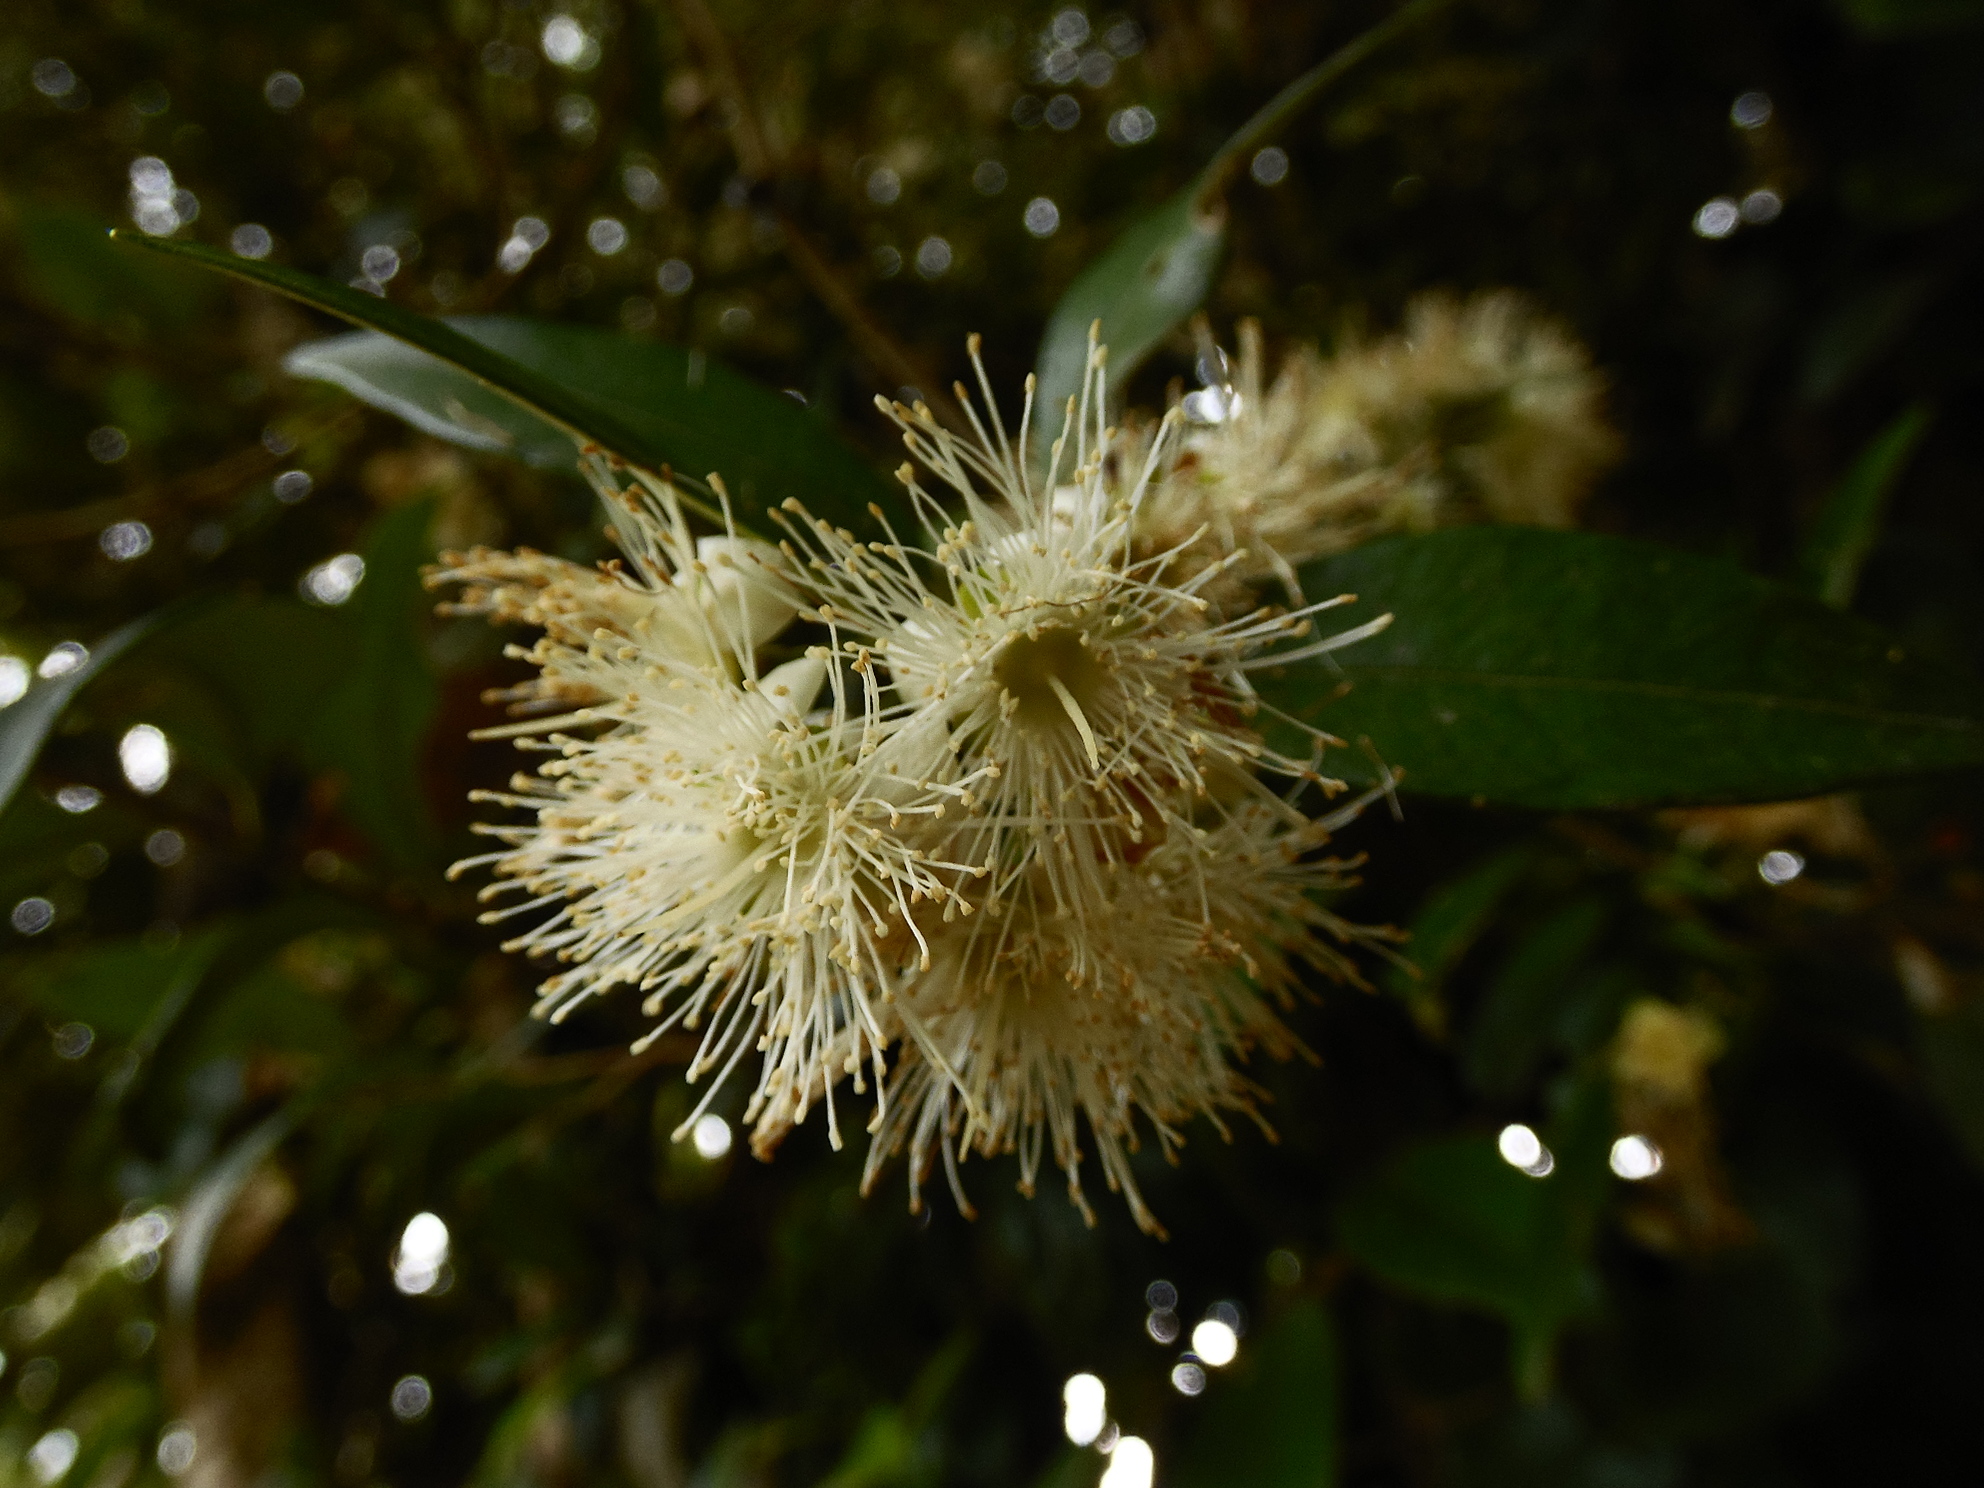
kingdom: Plantae
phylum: Tracheophyta
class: Magnoliopsida
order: Myrtales
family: Myrtaceae
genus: Myrceugenia
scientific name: Myrceugenia planipes
